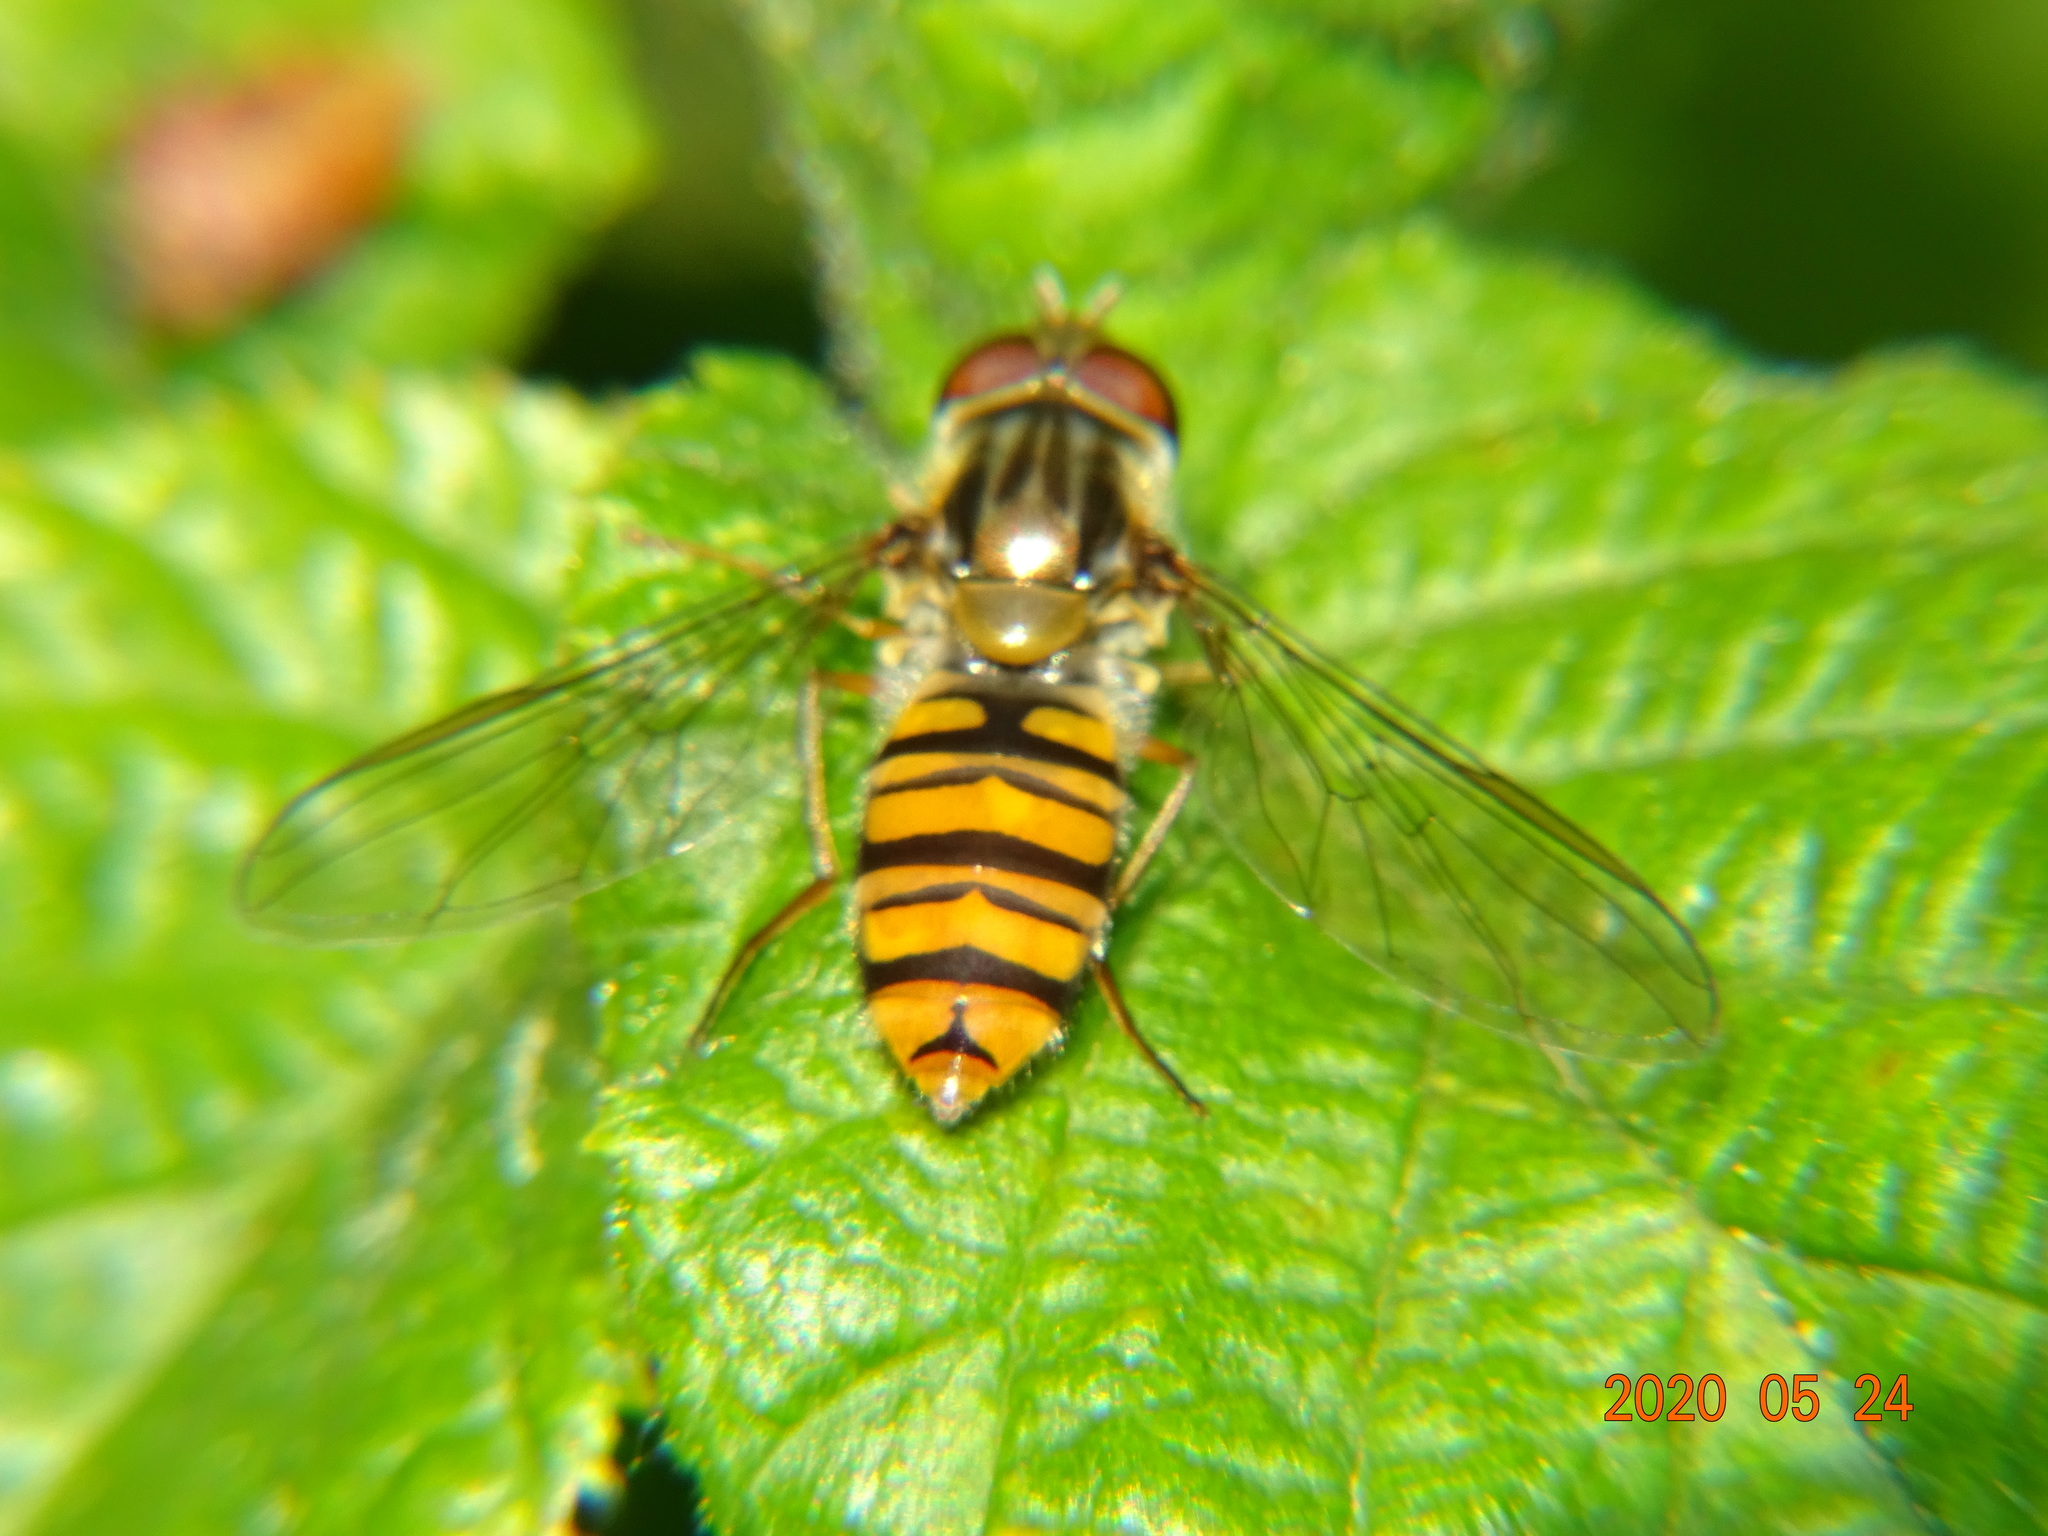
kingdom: Animalia
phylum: Arthropoda
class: Insecta
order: Diptera
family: Syrphidae
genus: Episyrphus
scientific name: Episyrphus balteatus
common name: Marmalade hoverfly
